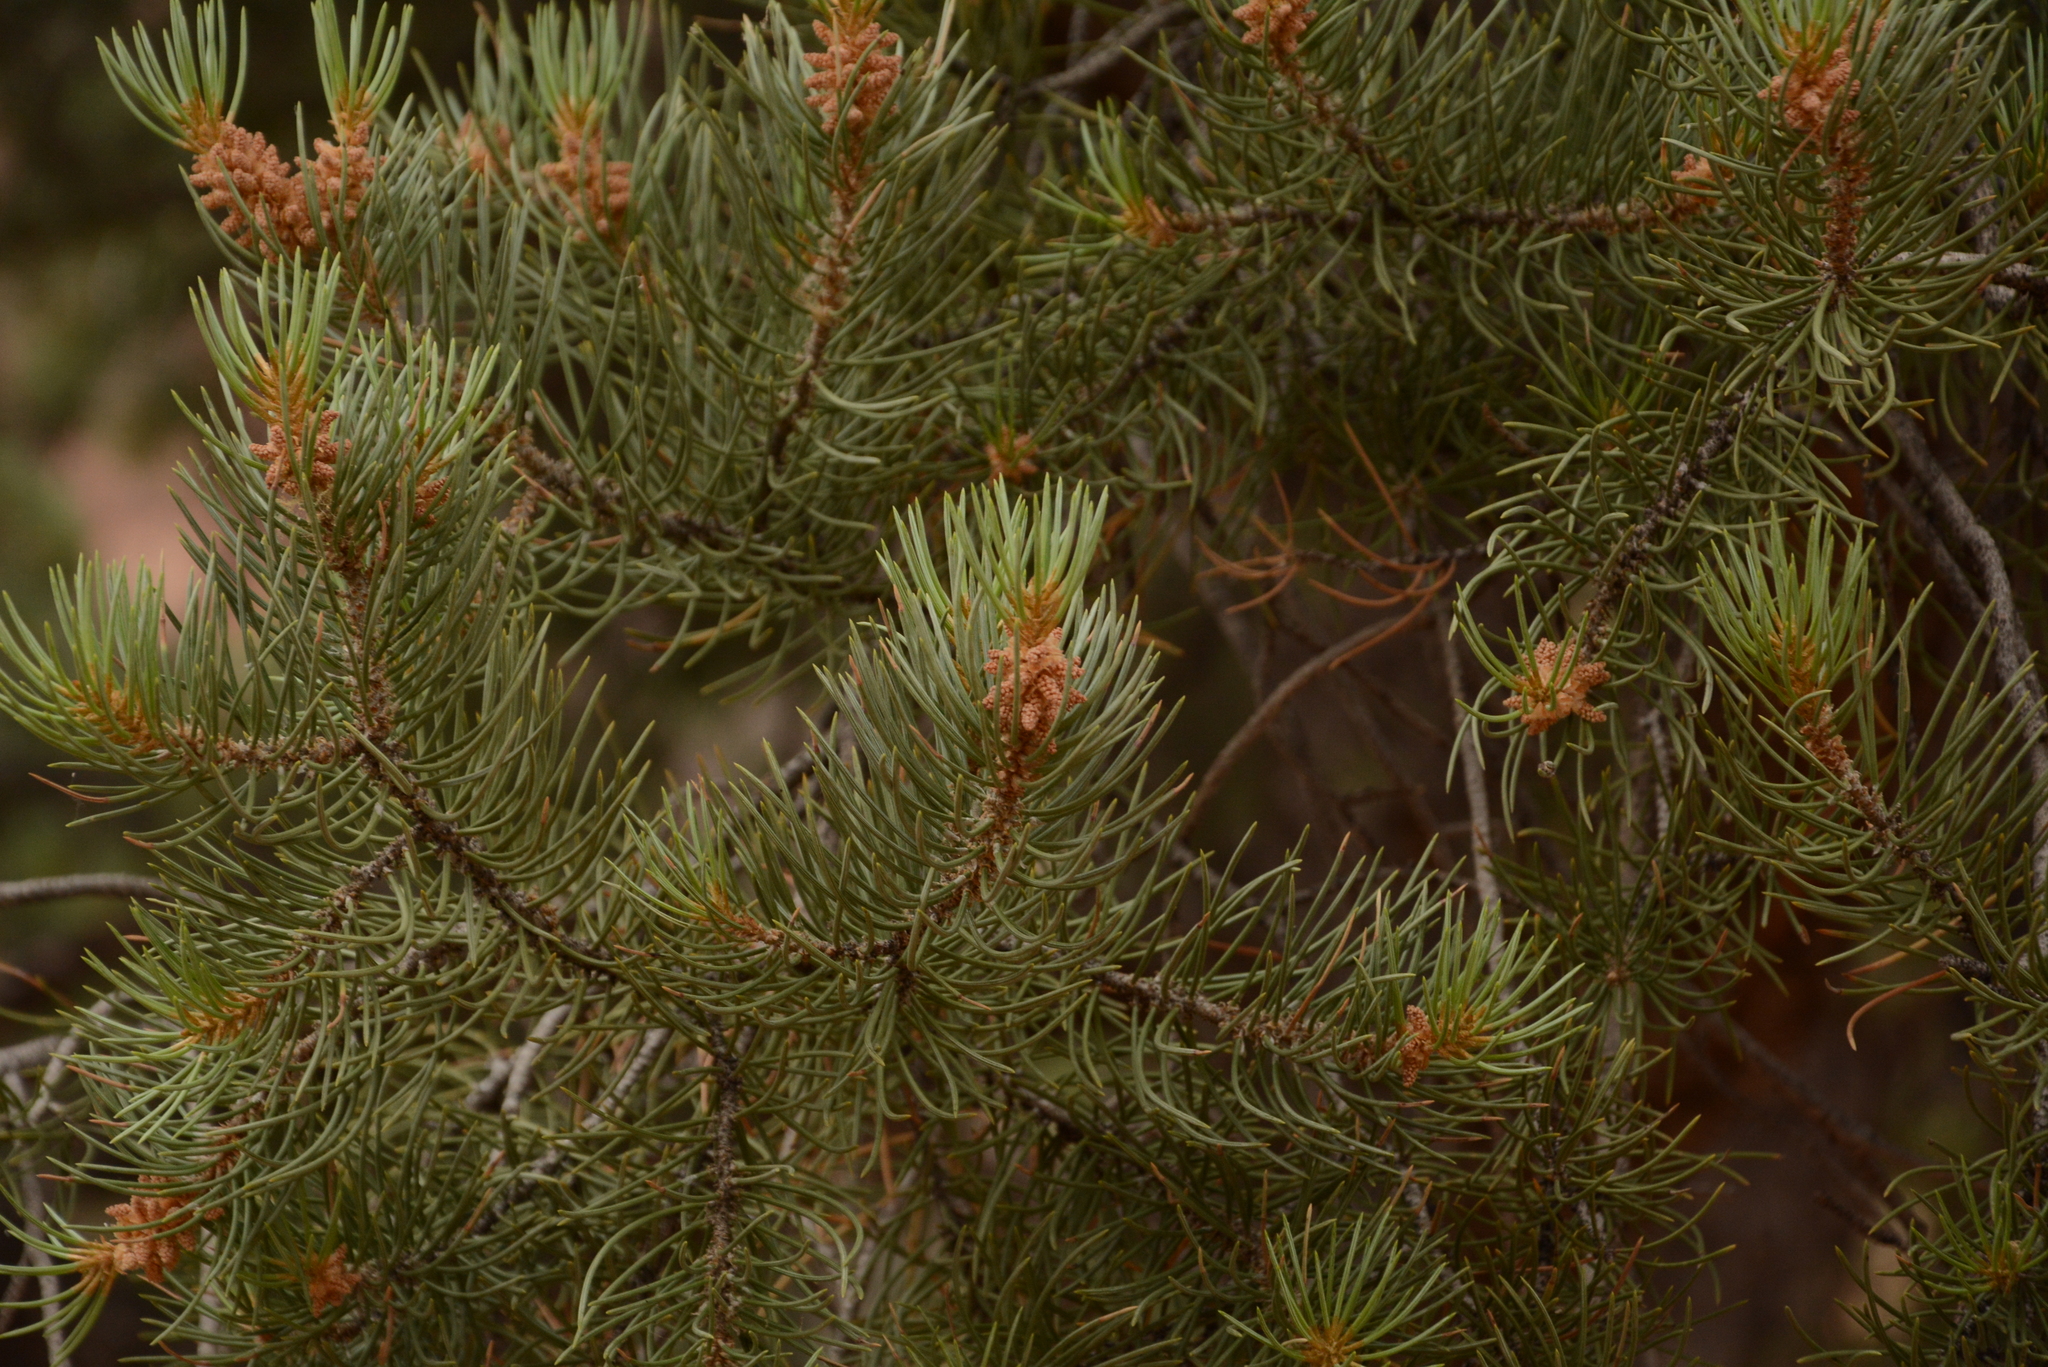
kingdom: Plantae
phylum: Tracheophyta
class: Pinopsida
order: Pinales
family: Pinaceae
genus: Pinus
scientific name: Pinus monophylla
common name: One-leaved nut pine
